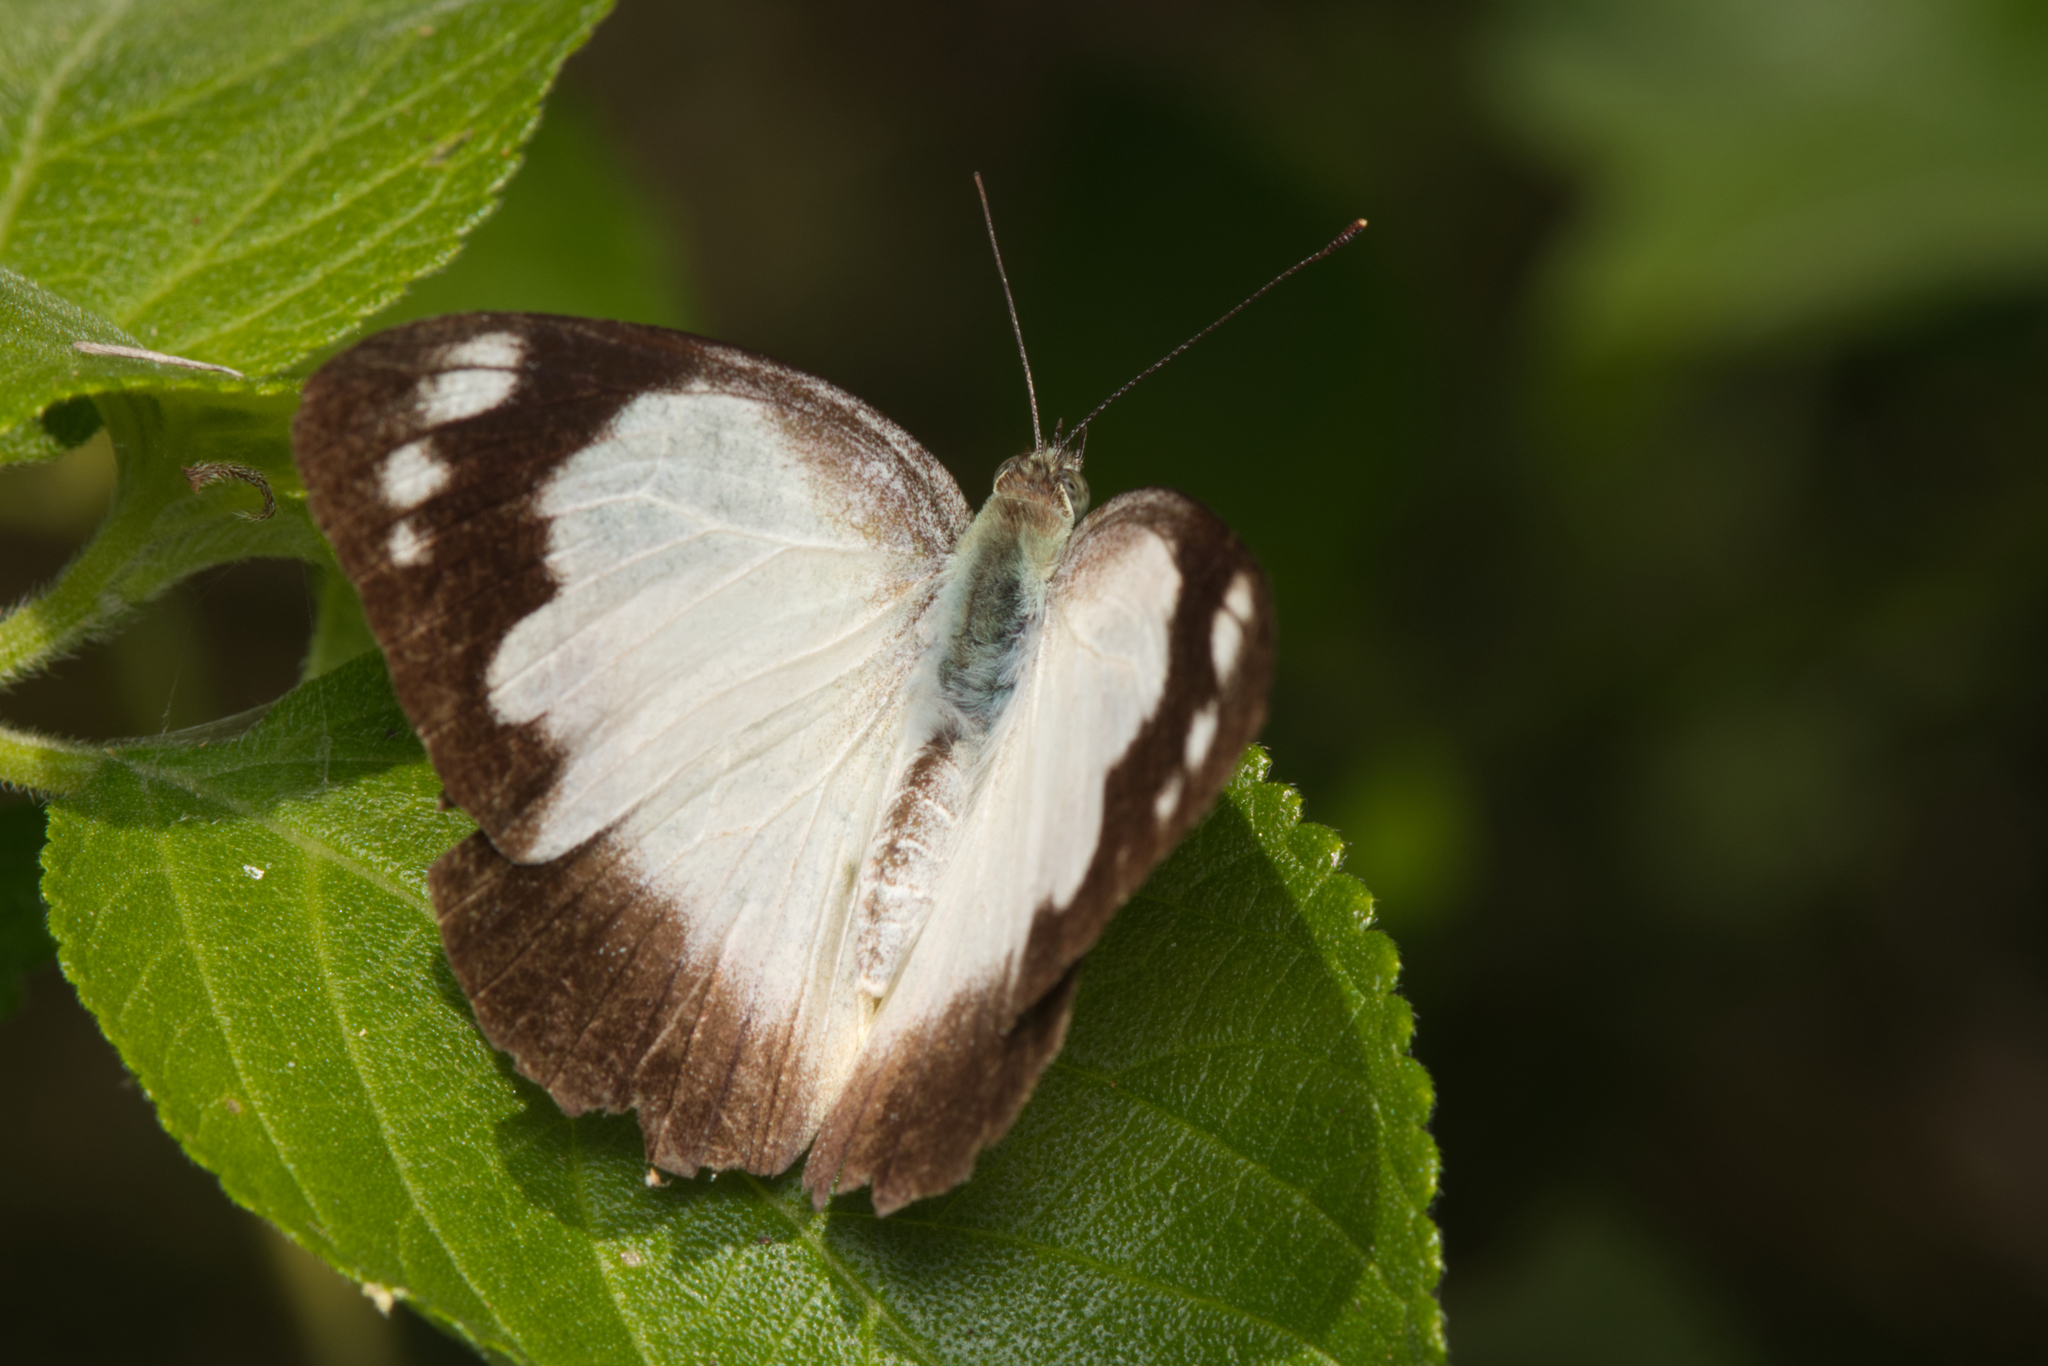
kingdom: Animalia
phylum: Arthropoda
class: Insecta
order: Lepidoptera
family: Pieridae
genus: Appias
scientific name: Appias paulina
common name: Ceylon lesser albatross
